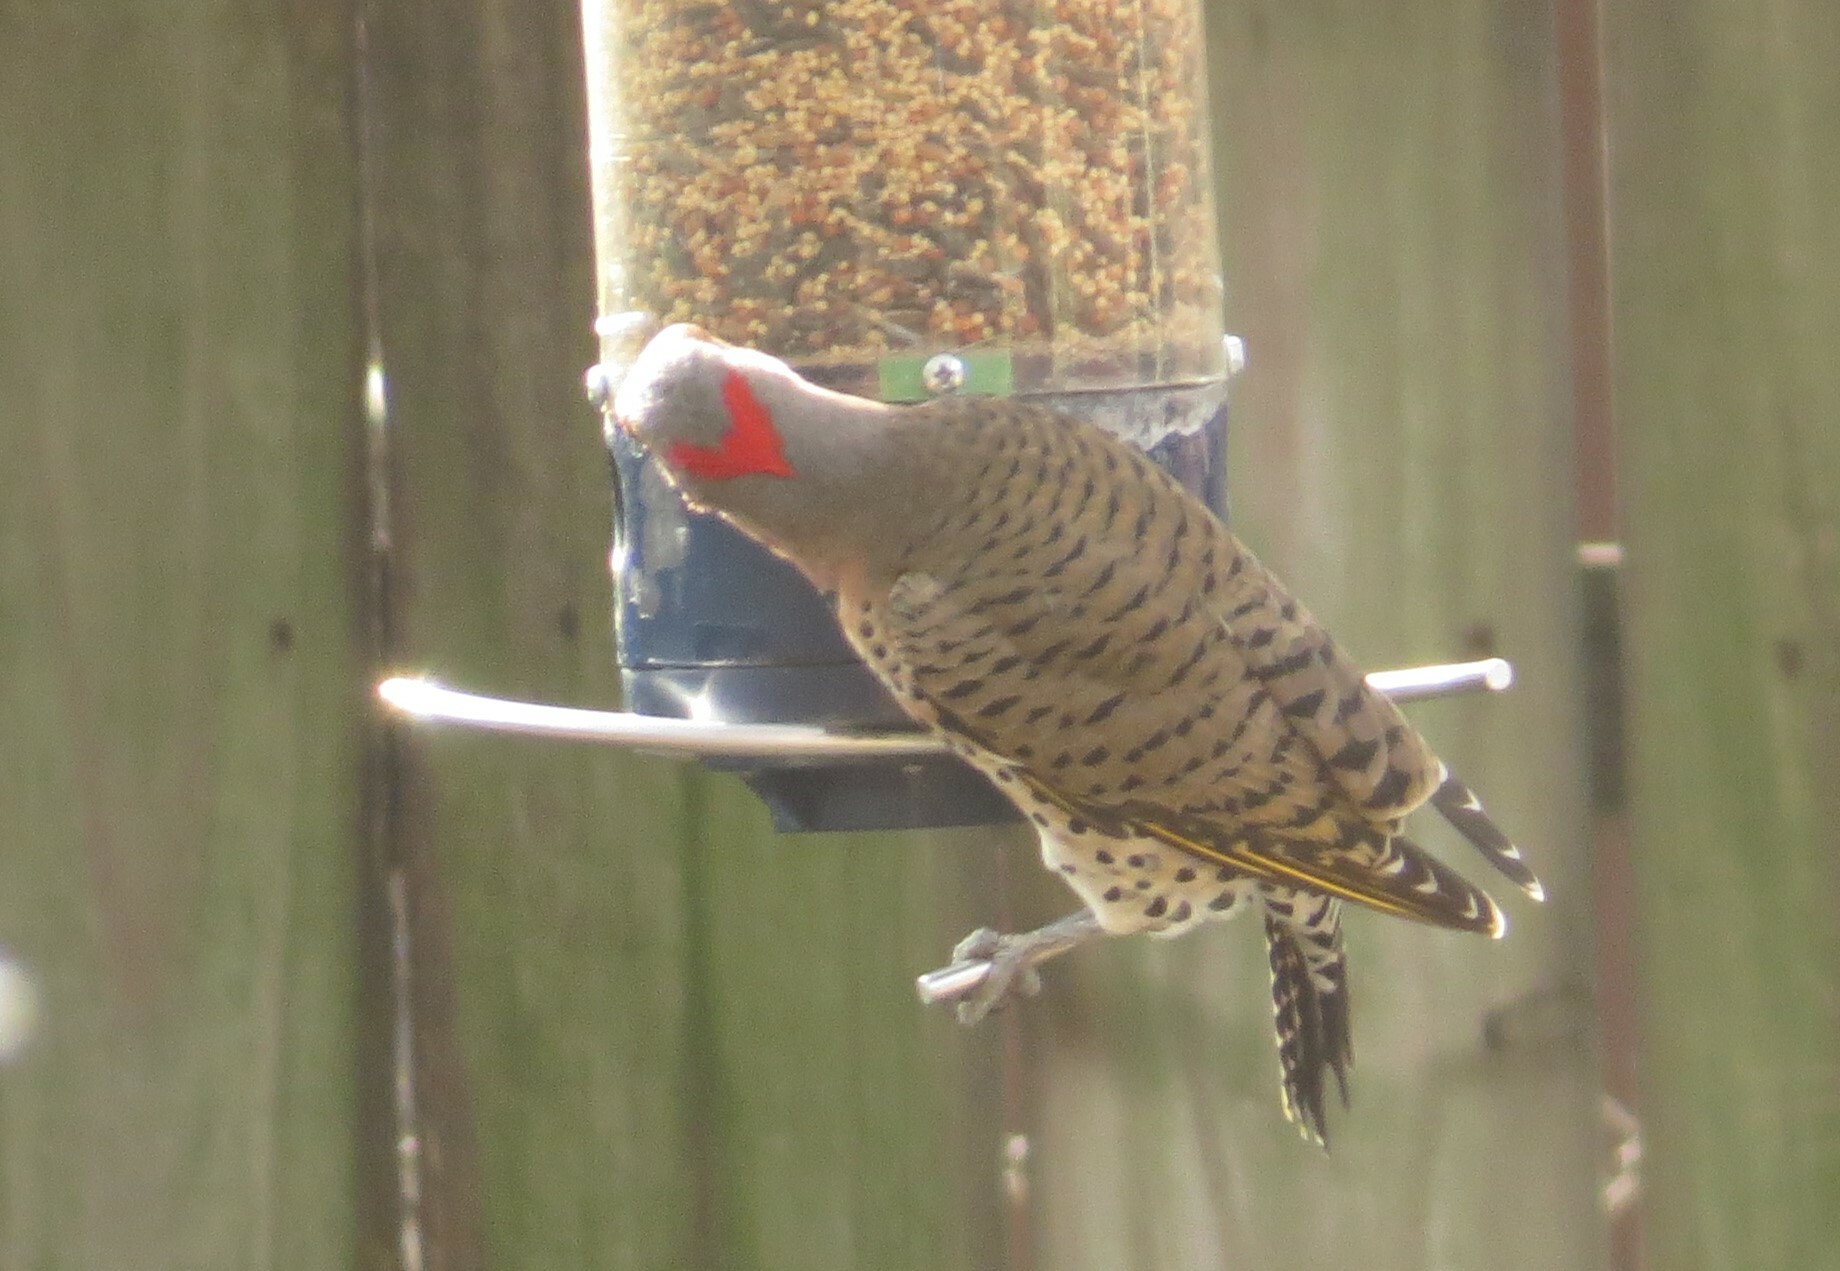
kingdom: Animalia
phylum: Chordata
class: Aves
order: Piciformes
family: Picidae
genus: Colaptes
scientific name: Colaptes auratus
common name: Northern flicker
